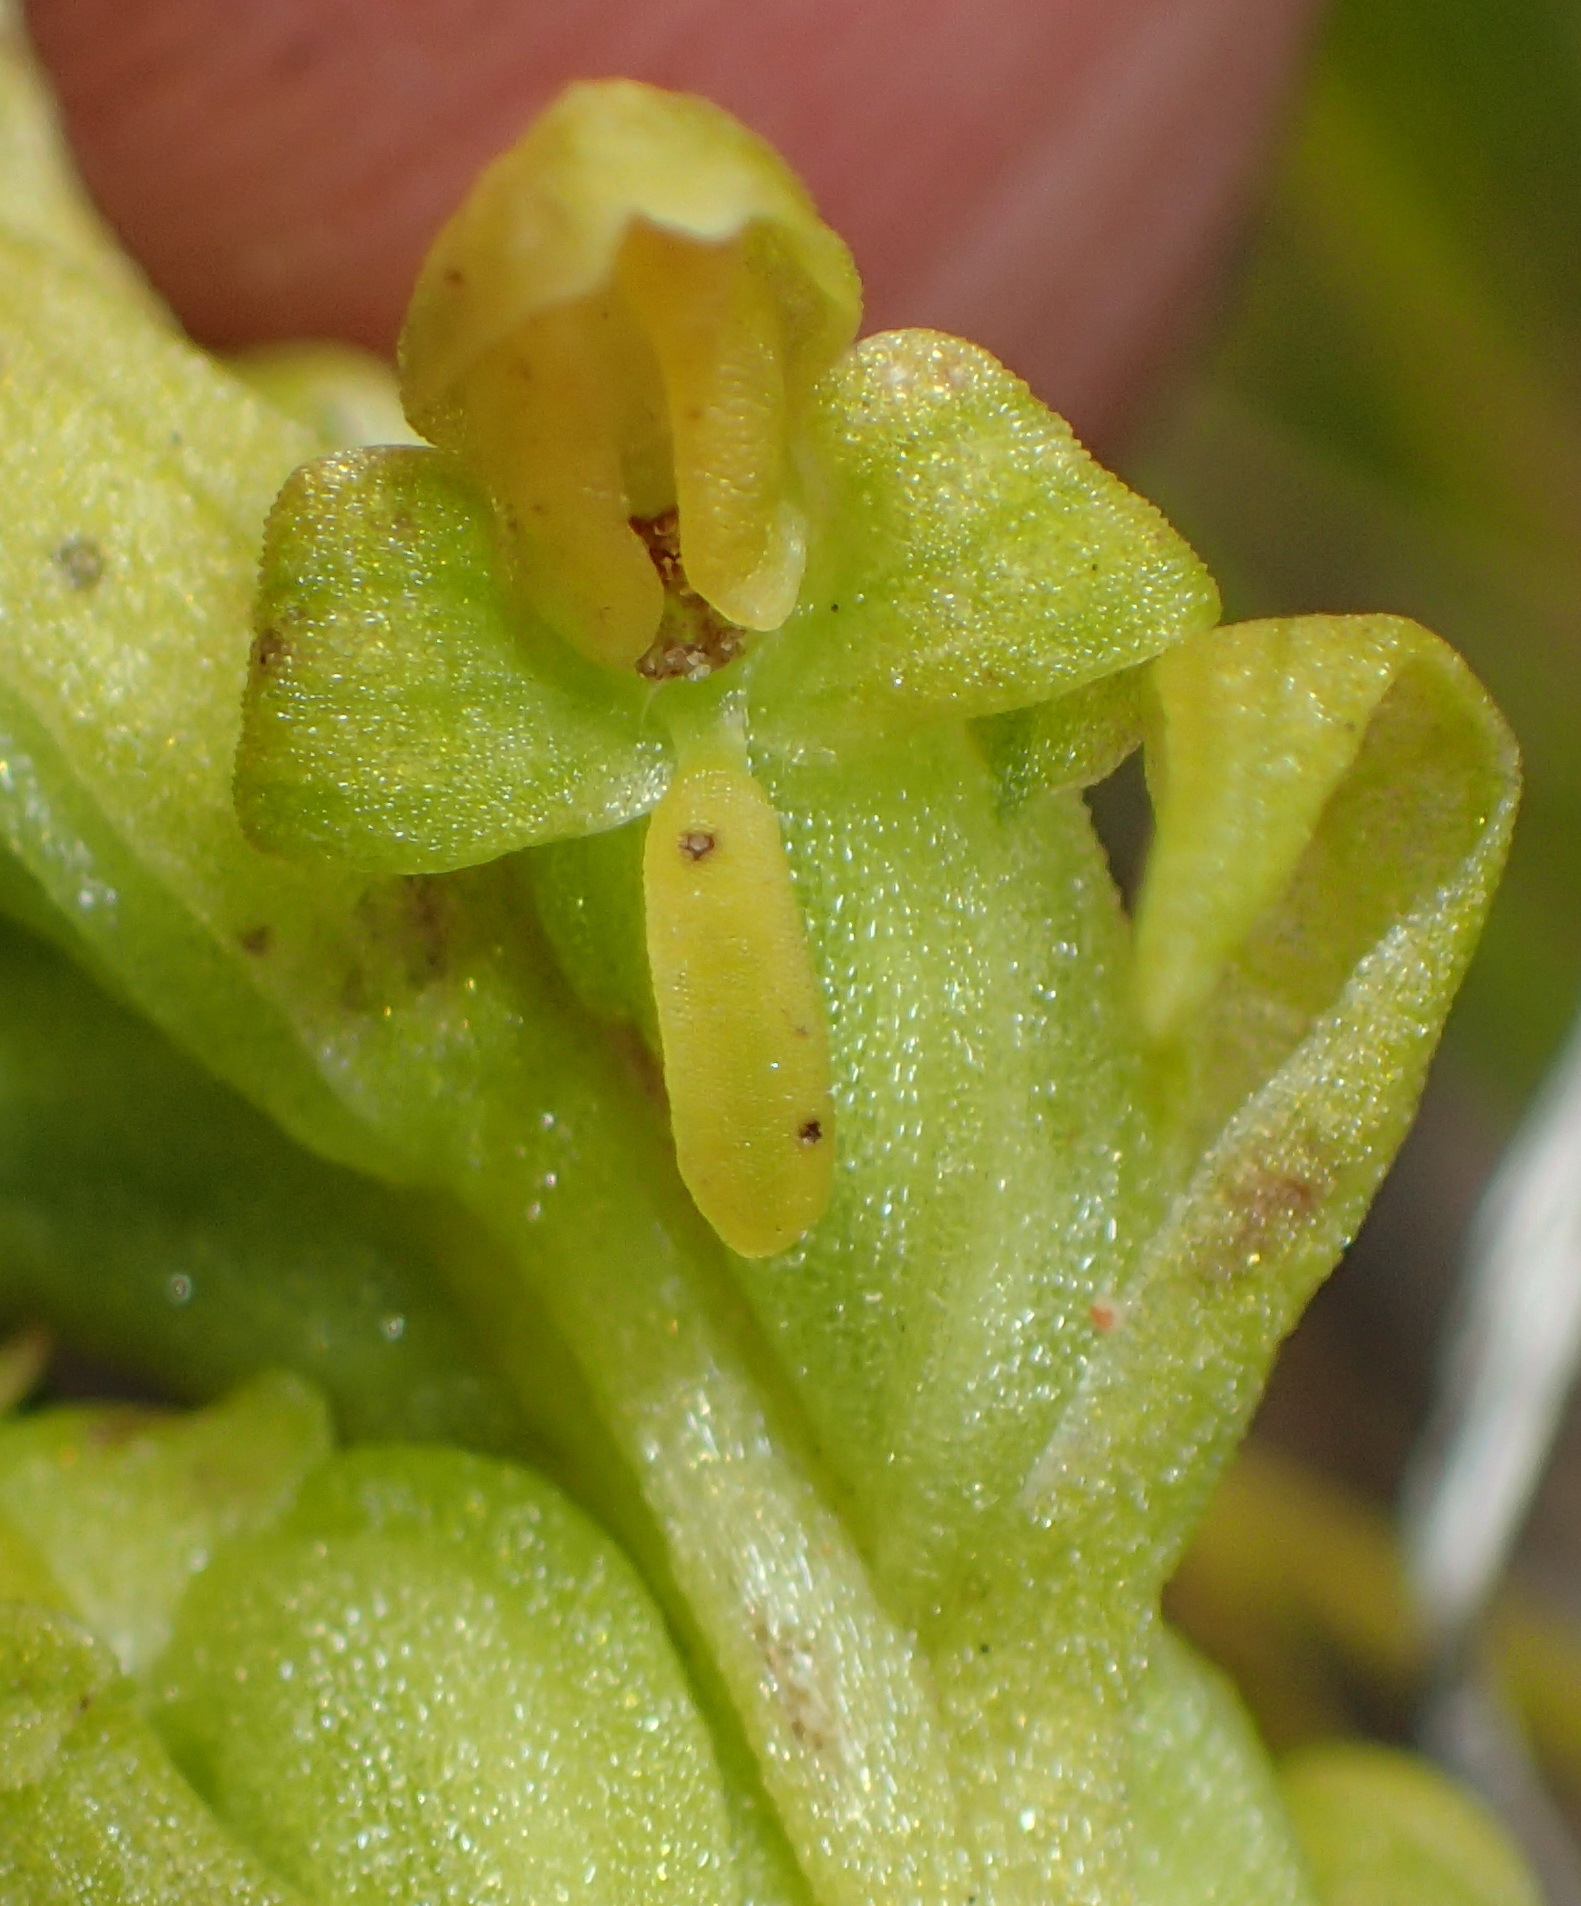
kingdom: Plantae
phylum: Tracheophyta
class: Liliopsida
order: Asparagales
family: Orchidaceae
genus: Disa
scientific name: Disa cylindrica
